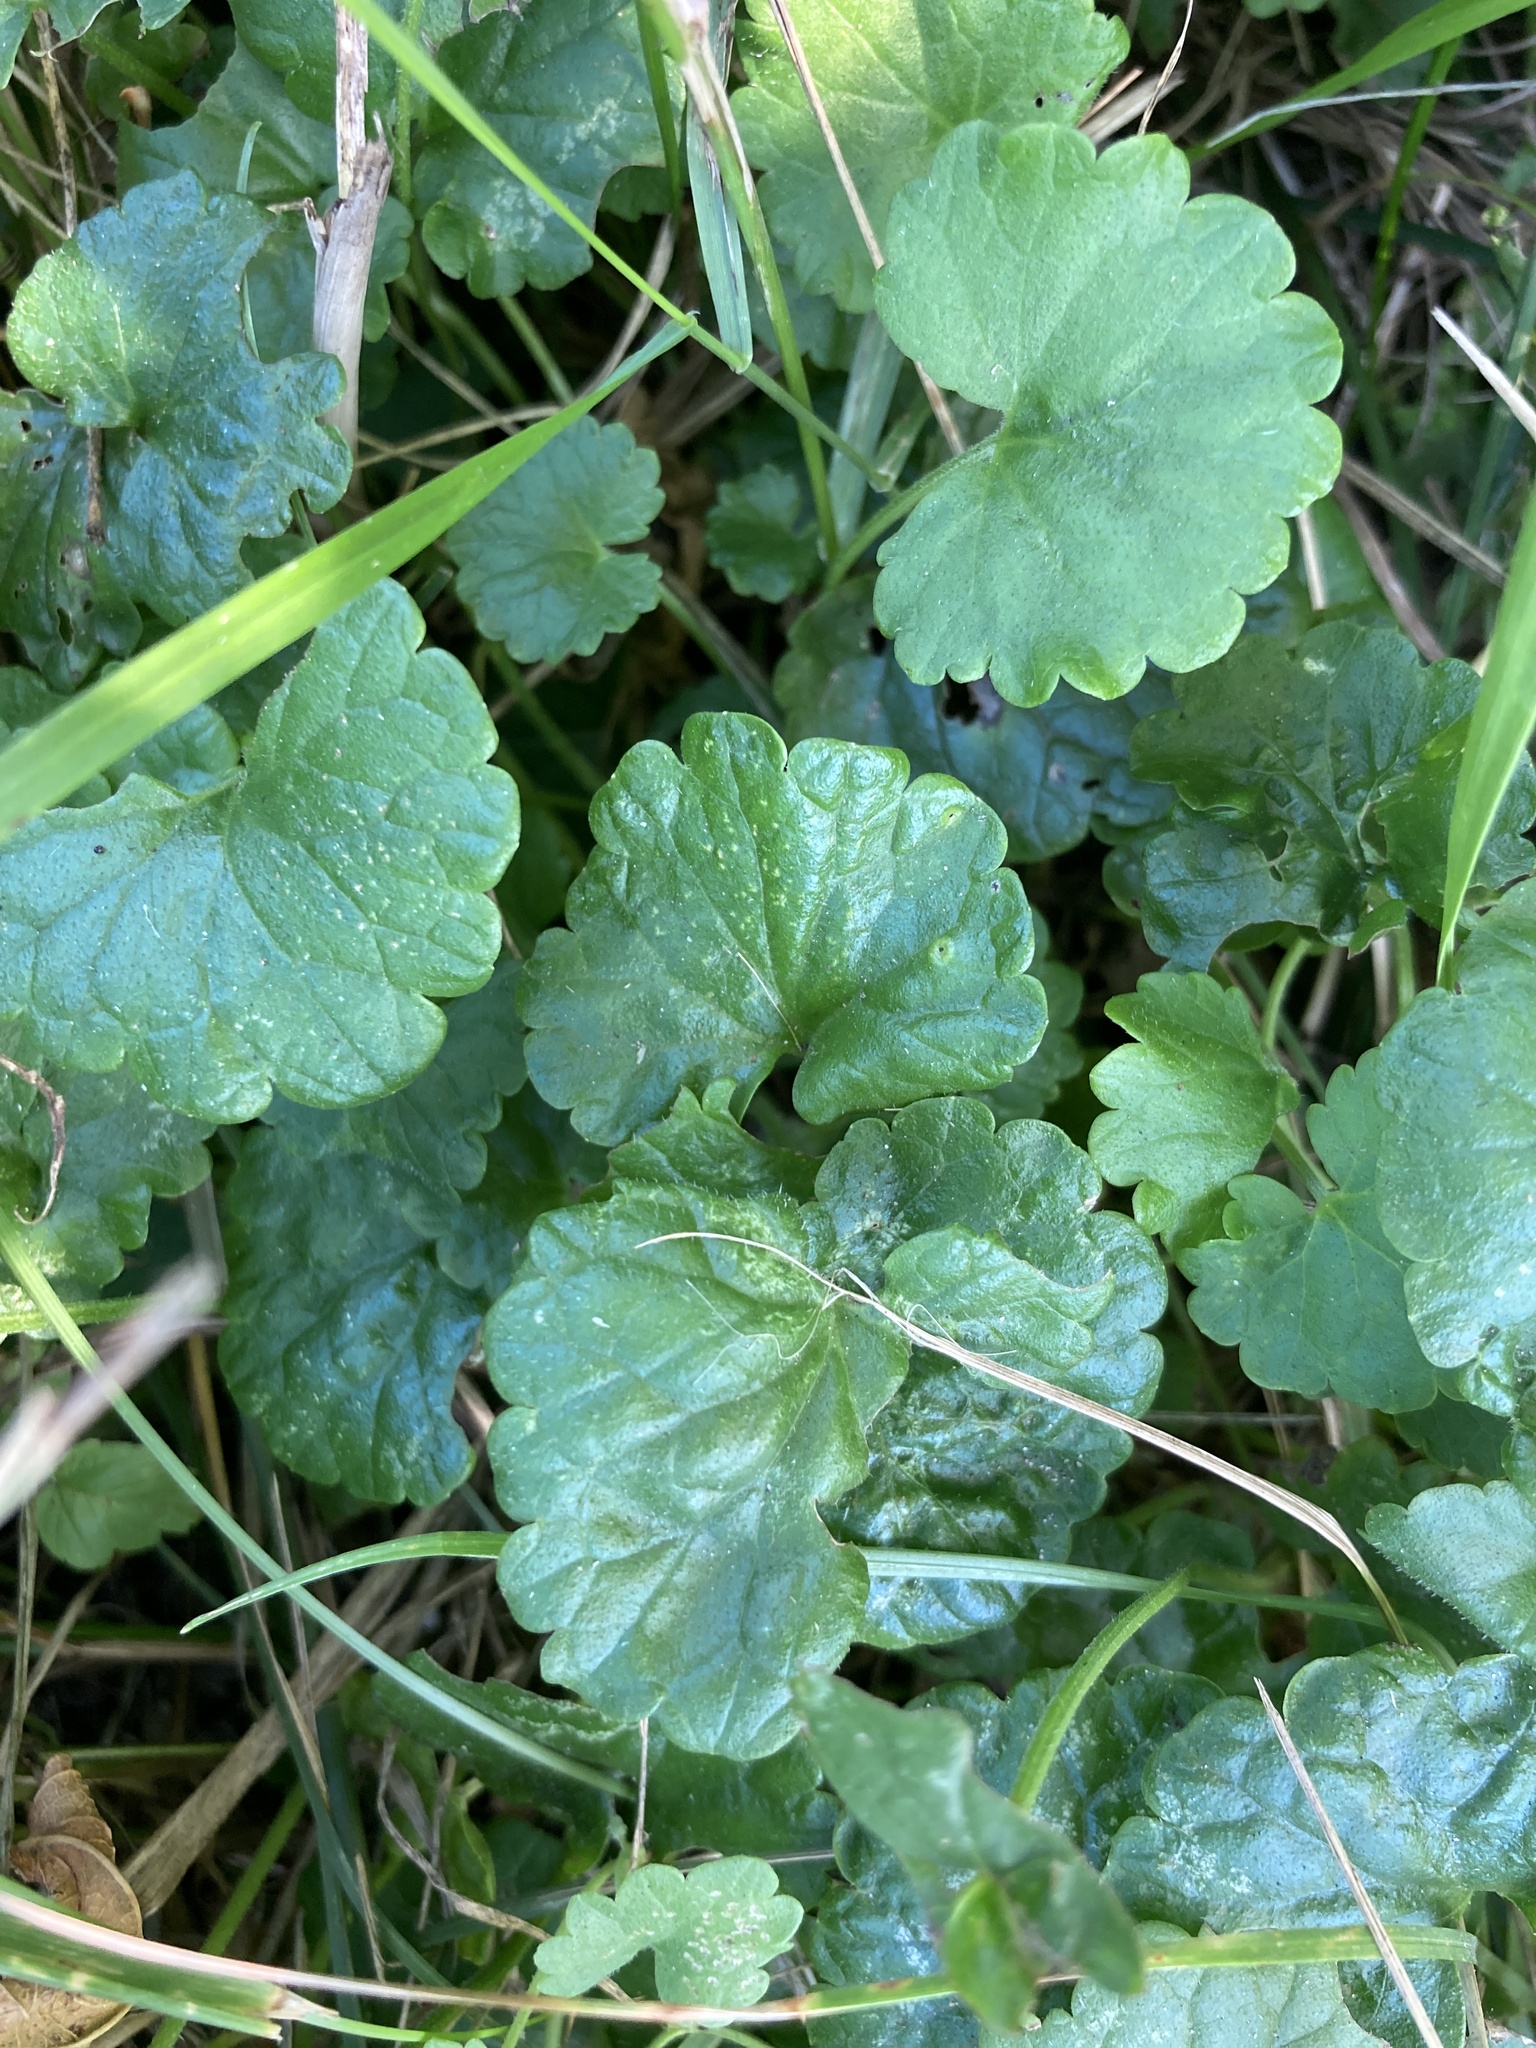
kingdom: Plantae
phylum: Tracheophyta
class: Magnoliopsida
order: Lamiales
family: Lamiaceae
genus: Glechoma
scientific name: Glechoma hederacea
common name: Ground ivy
